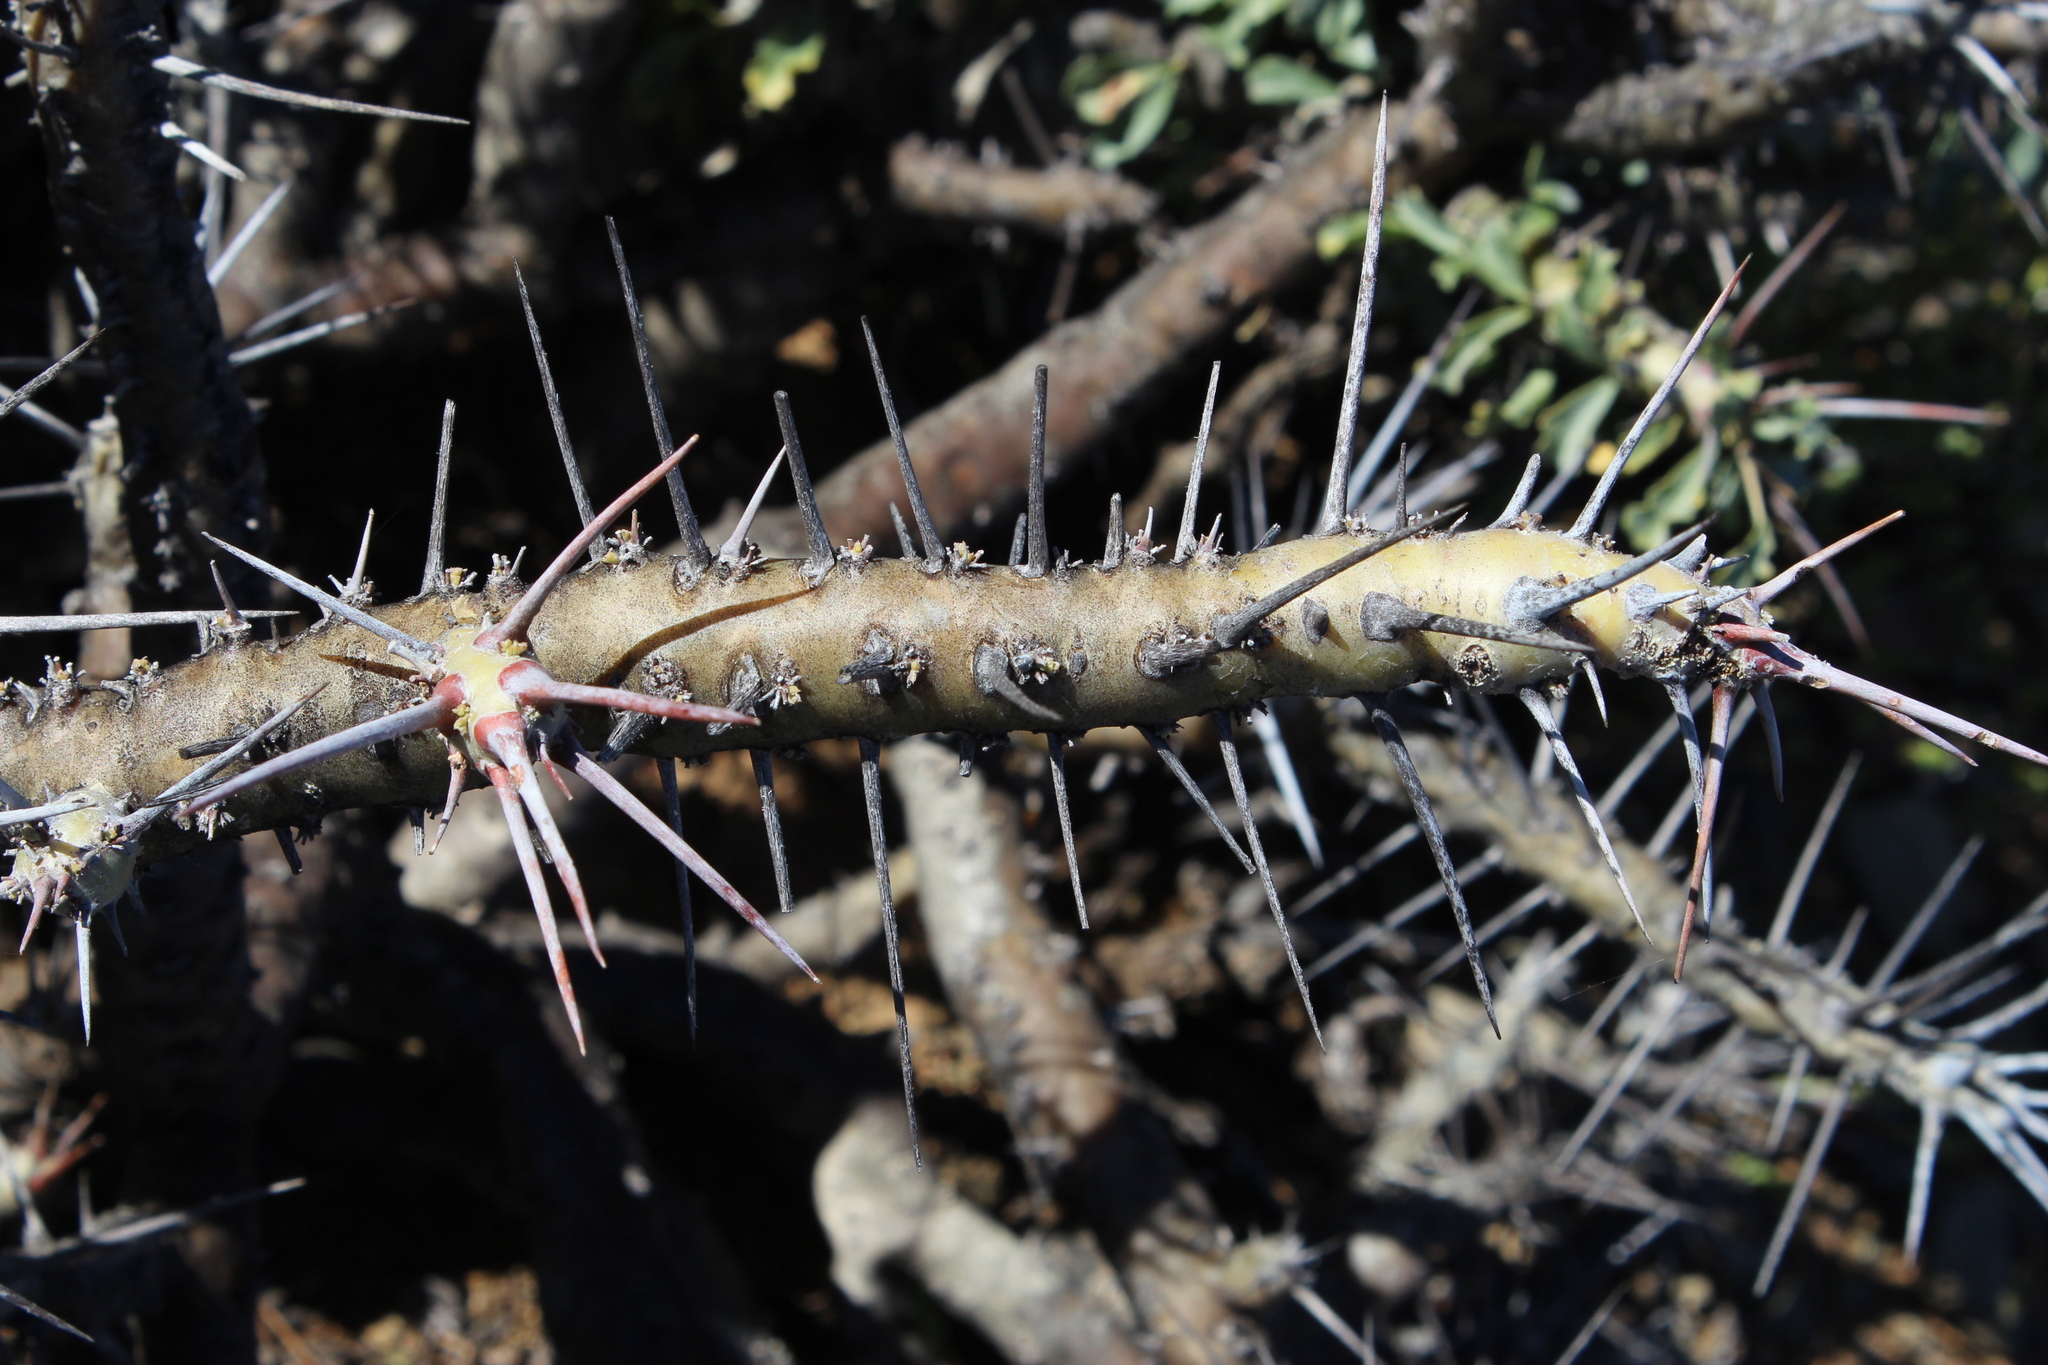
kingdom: Plantae
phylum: Tracheophyta
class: Magnoliopsida
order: Geraniales
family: Geraniaceae
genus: Monsonia
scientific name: Monsonia crassicaulis
